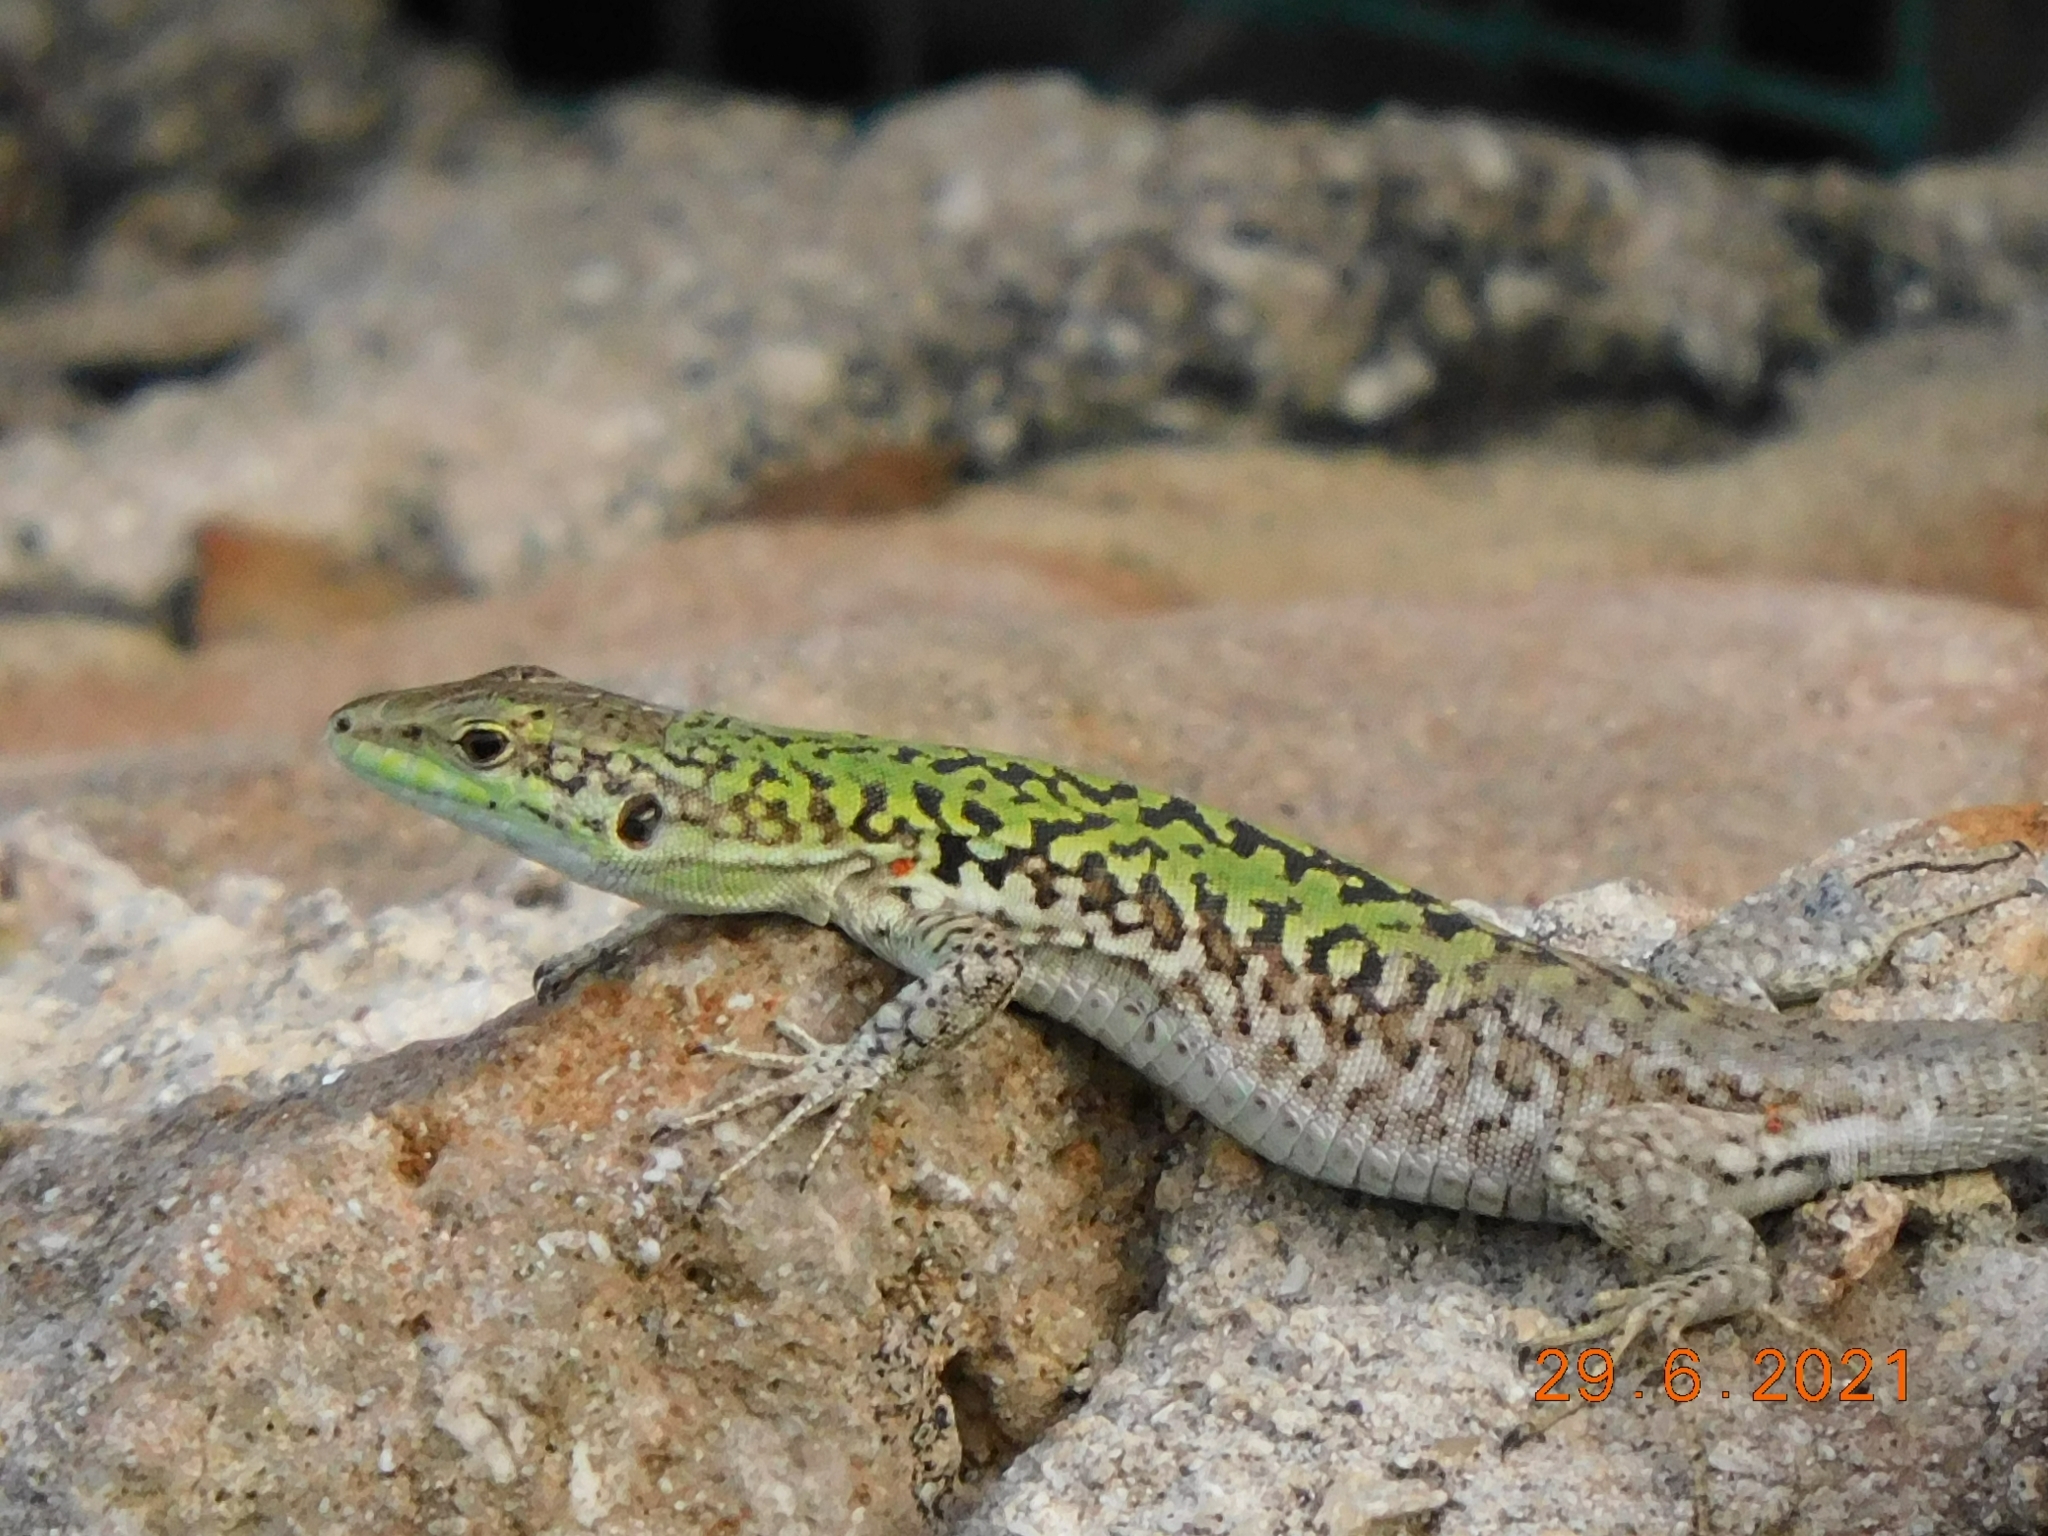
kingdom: Animalia
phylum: Chordata
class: Squamata
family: Lacertidae
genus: Podarcis
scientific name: Podarcis siculus
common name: Italian wall lizard
